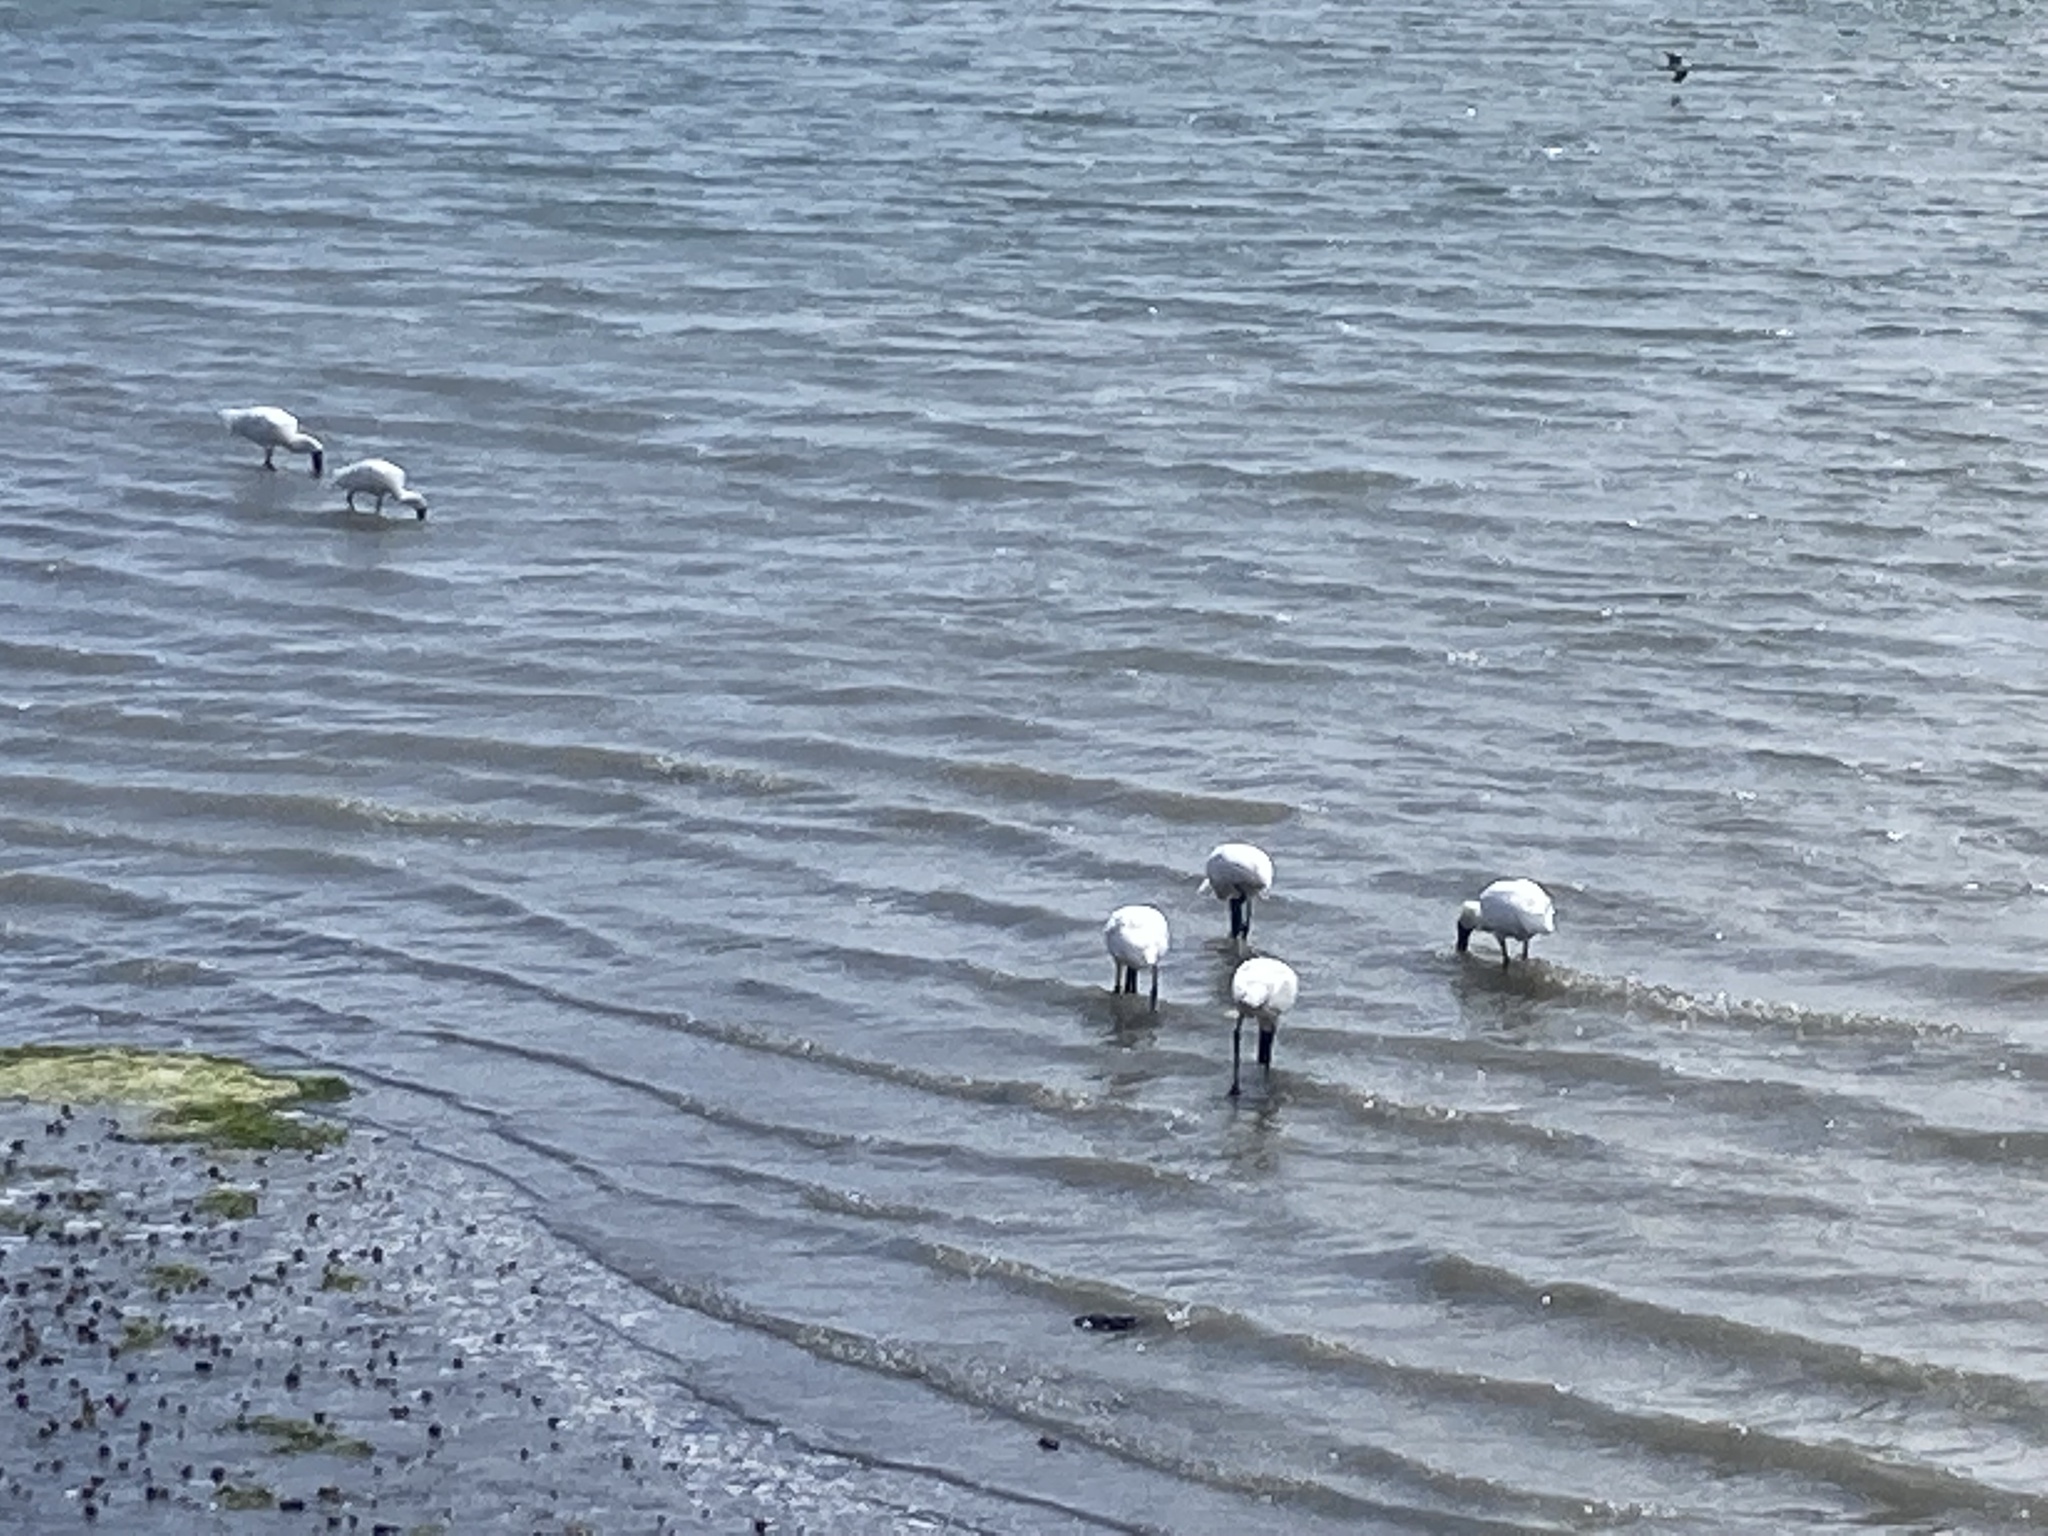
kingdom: Animalia
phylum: Chordata
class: Aves
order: Pelecaniformes
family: Threskiornithidae
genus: Platalea
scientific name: Platalea regia
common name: Royal spoonbill
